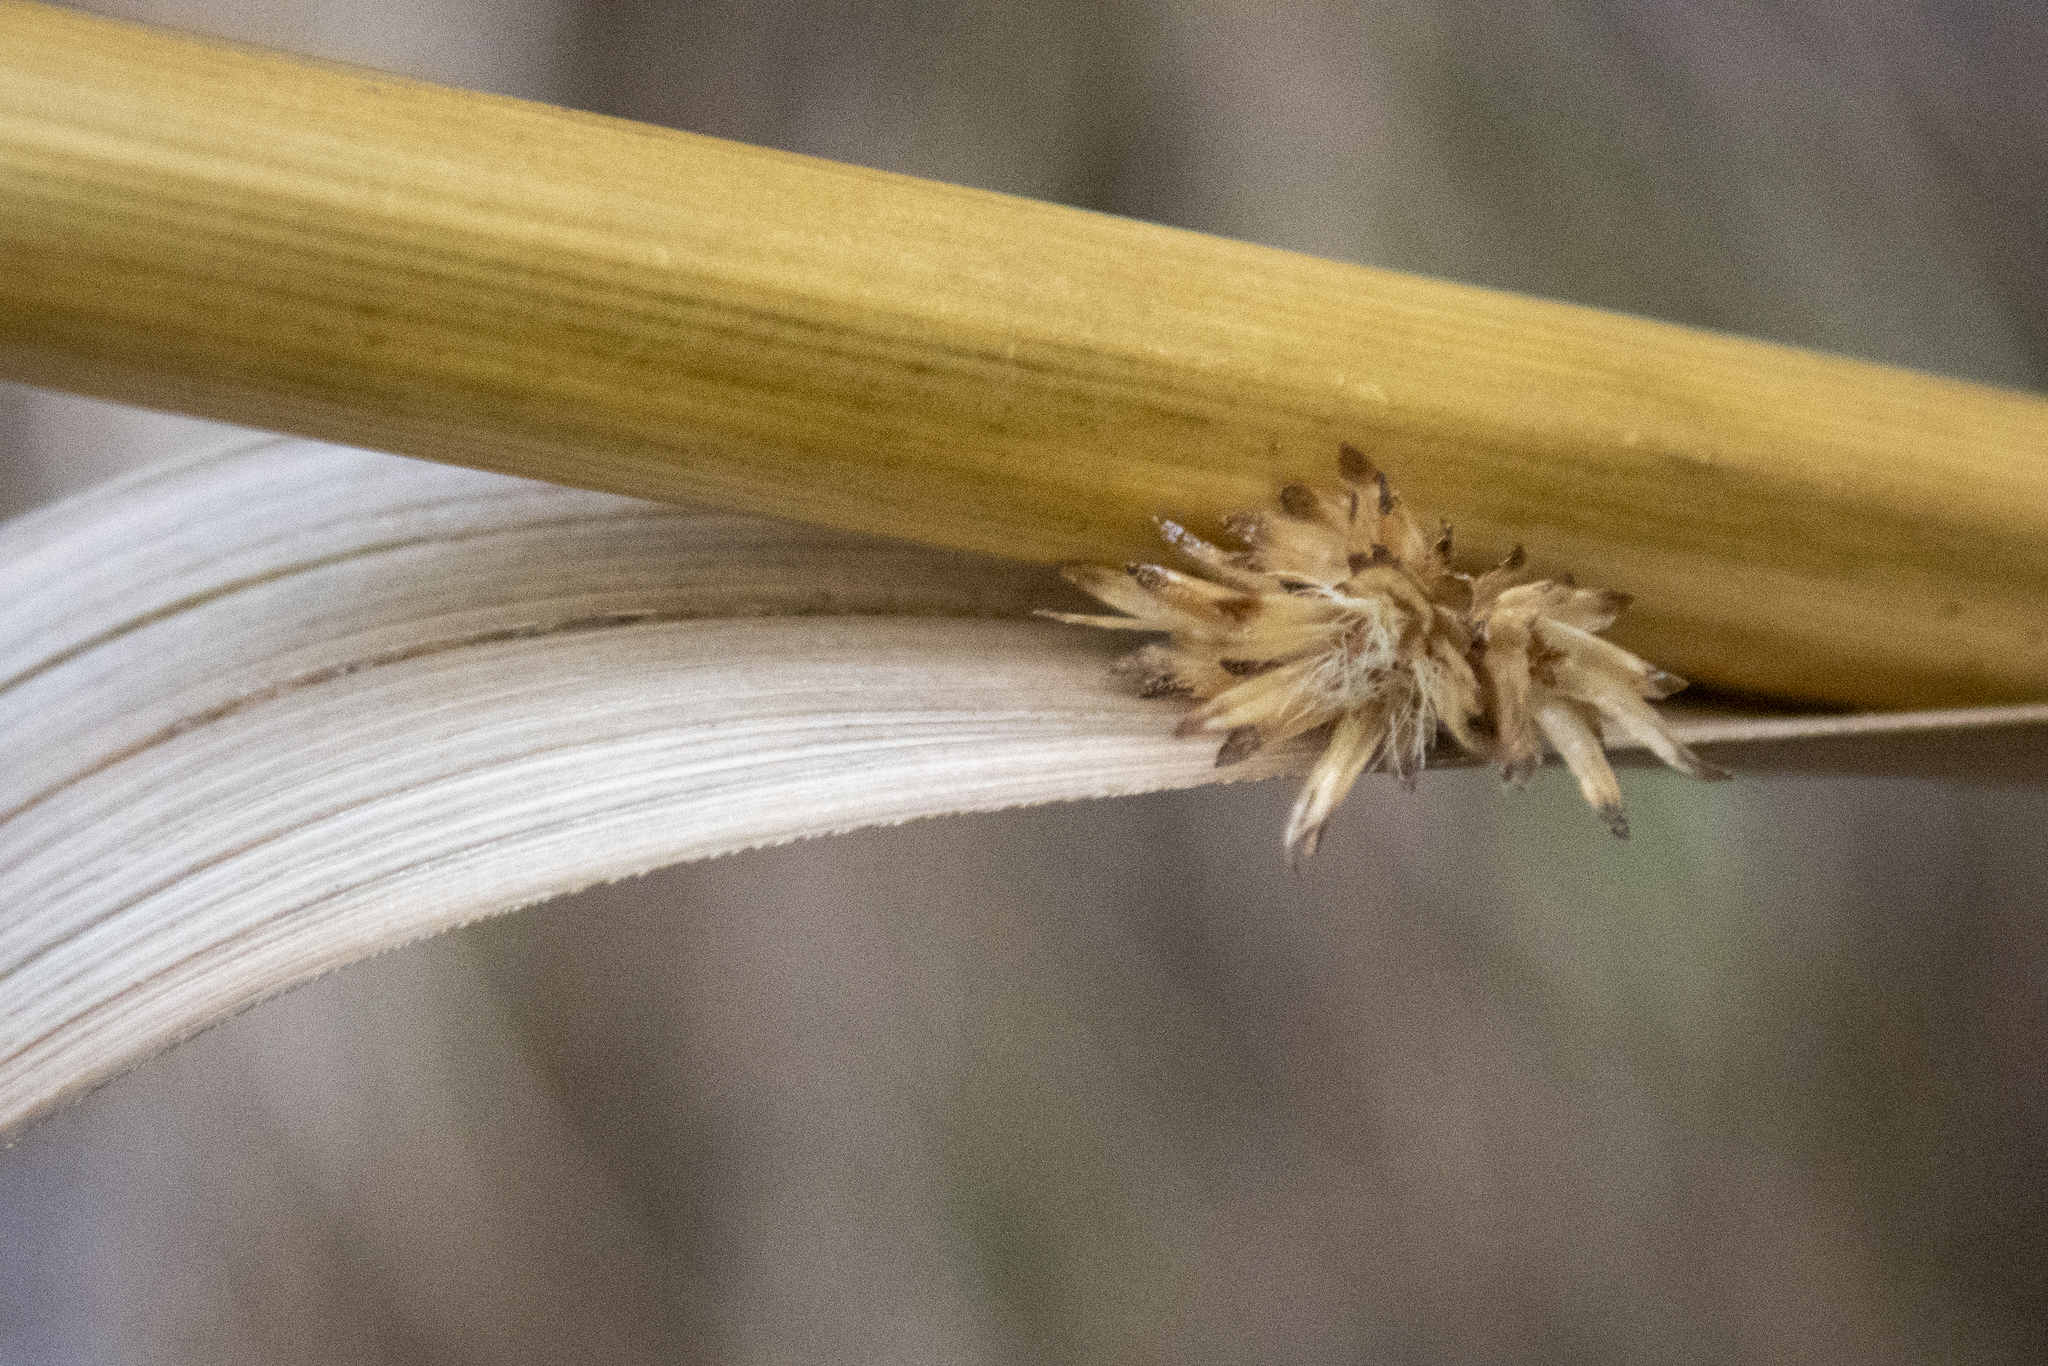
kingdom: Plantae
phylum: Tracheophyta
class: Liliopsida
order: Poales
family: Cyperaceae
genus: Scirpus
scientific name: Scirpus cyperinus
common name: Black-sheathed bulrush
